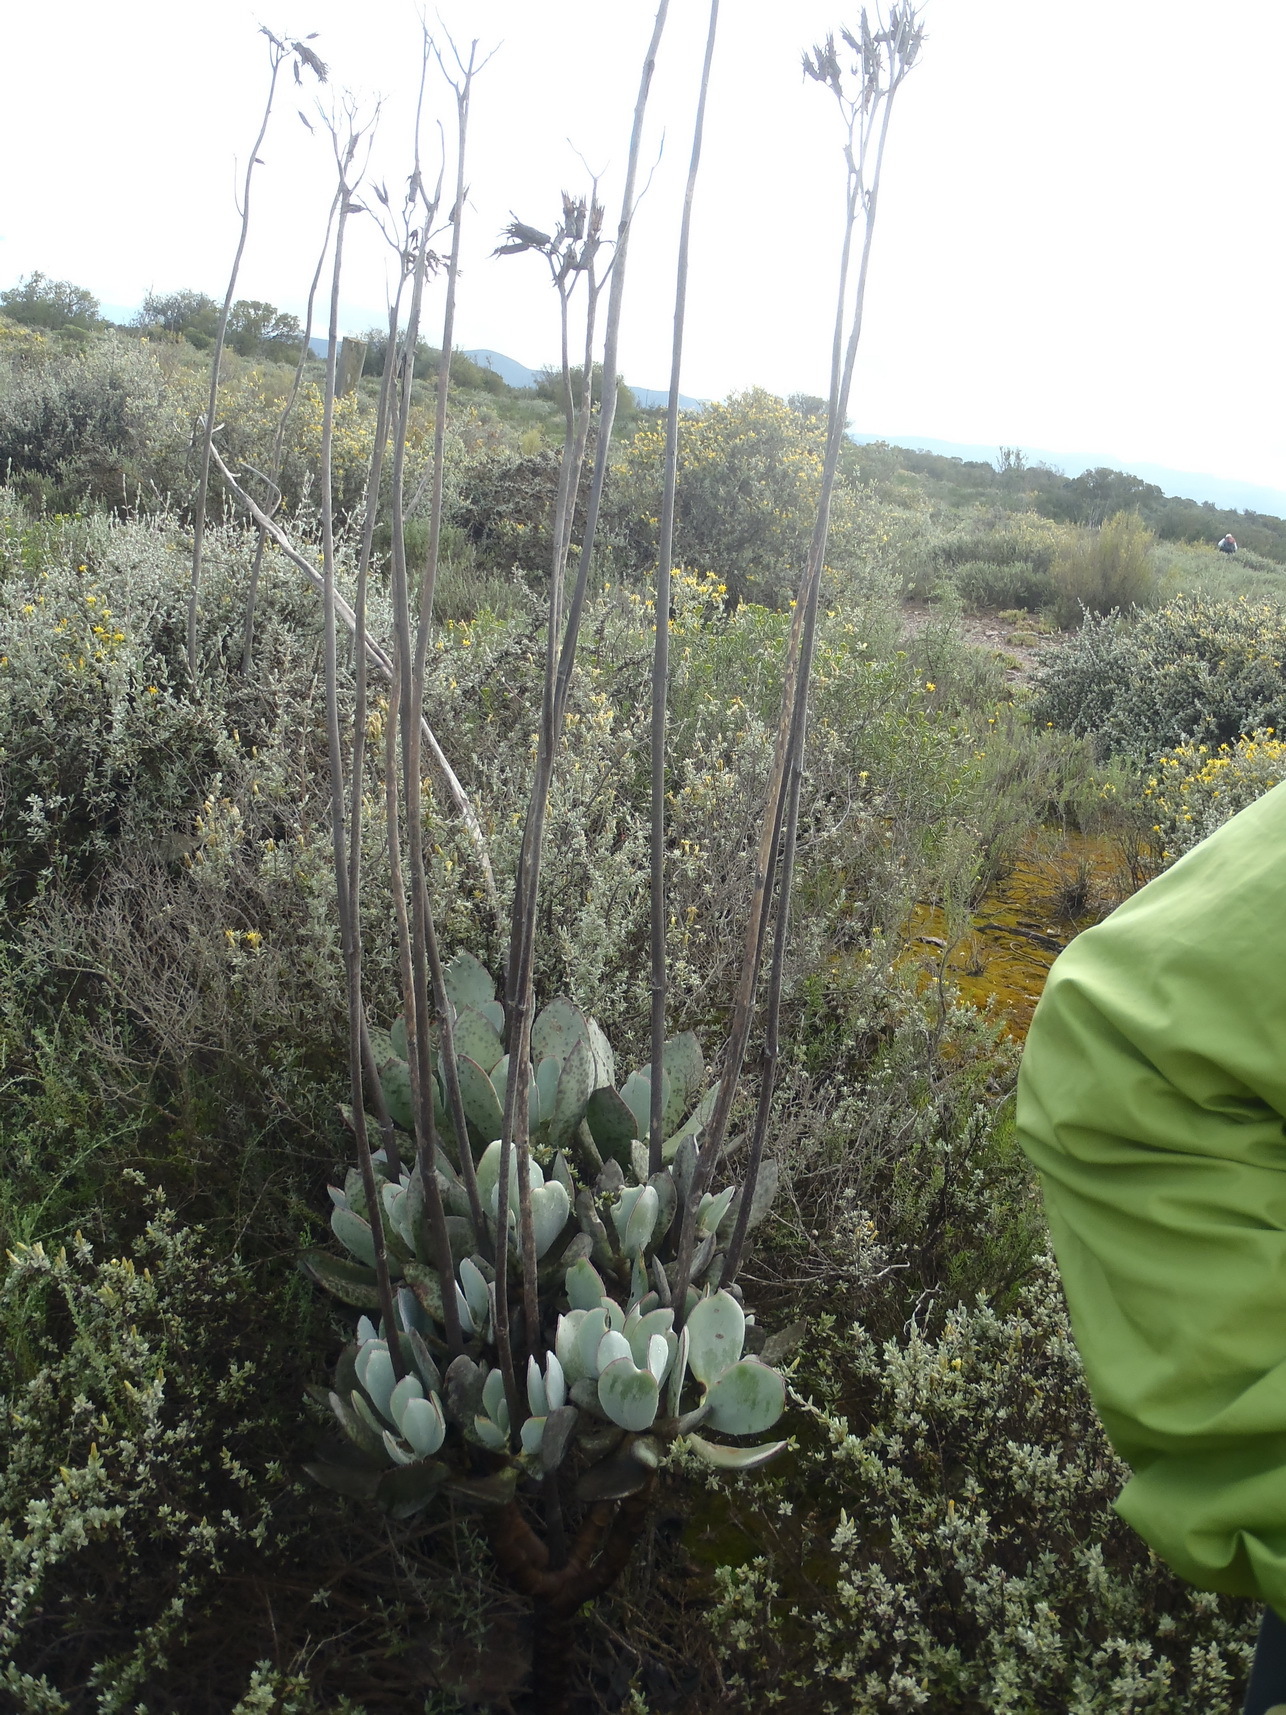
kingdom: Plantae
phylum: Tracheophyta
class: Magnoliopsida
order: Saxifragales
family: Crassulaceae
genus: Cotyledon
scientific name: Cotyledon orbiculata
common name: Pig's ear
